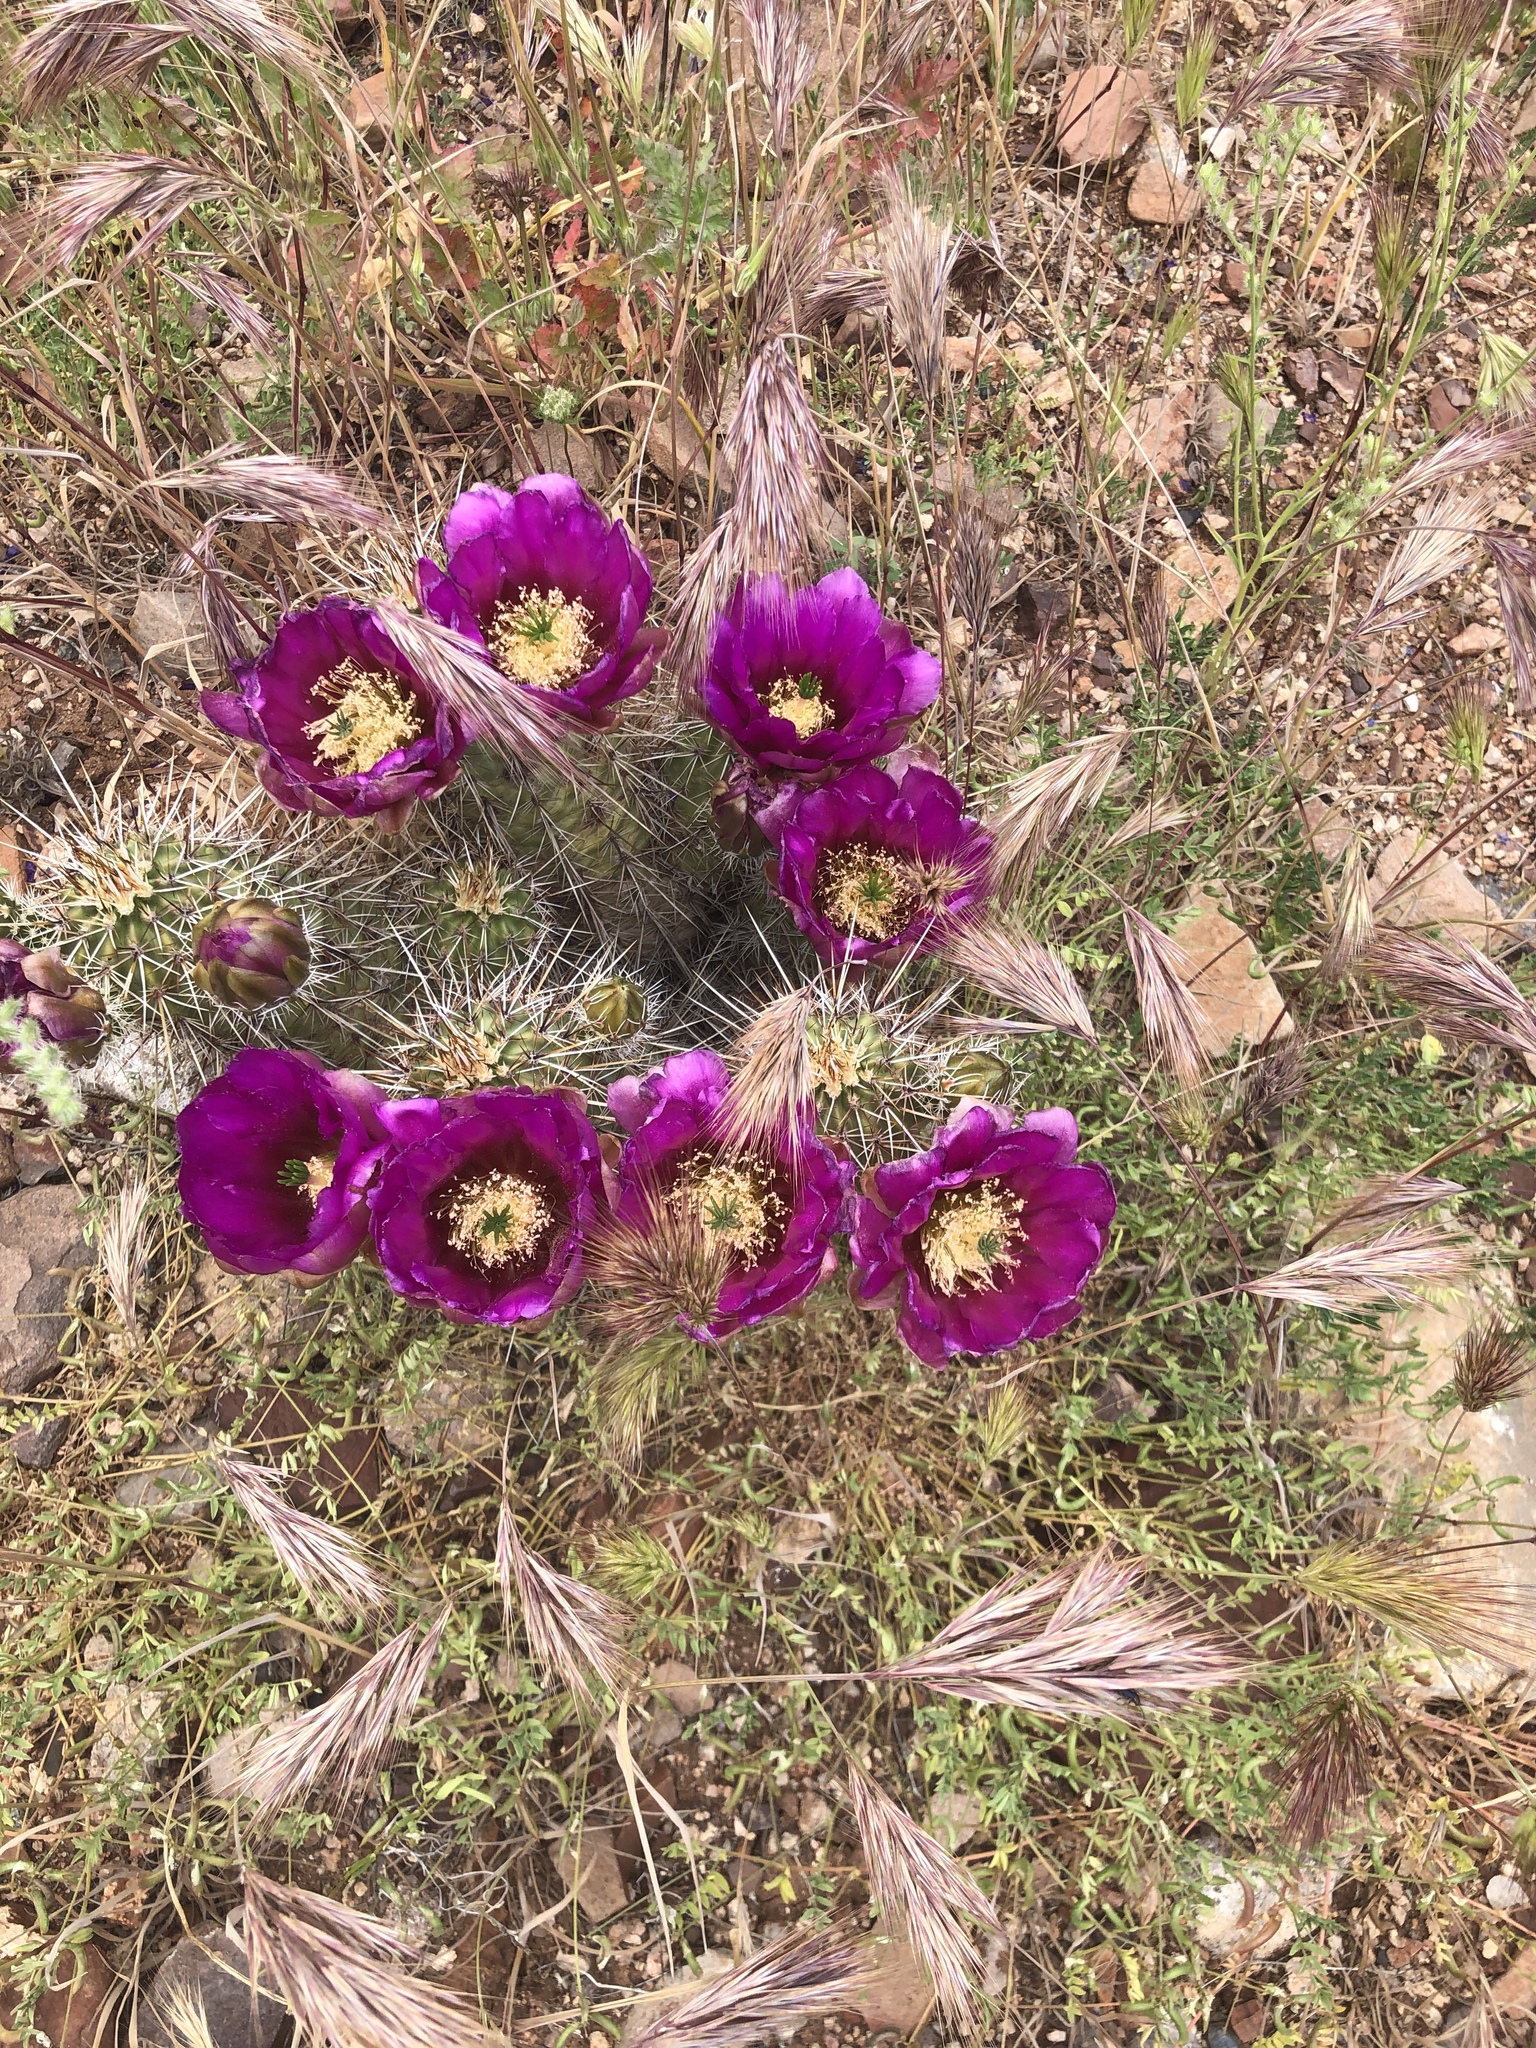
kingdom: Plantae
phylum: Tracheophyta
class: Magnoliopsida
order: Caryophyllales
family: Cactaceae
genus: Echinocereus
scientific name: Echinocereus fasciculatus
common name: Bundle hedgehog
